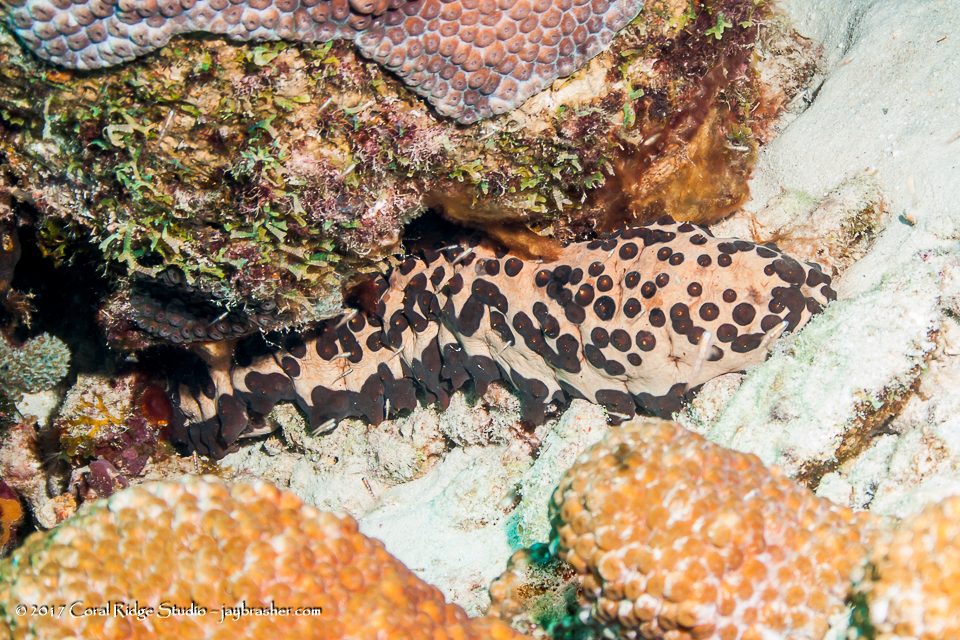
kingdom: Animalia
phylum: Echinodermata
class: Holothuroidea
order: Synallactida
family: Stichopodidae
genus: Isostichopus
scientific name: Isostichopus badionotus
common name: Chocolate chip cucumber
